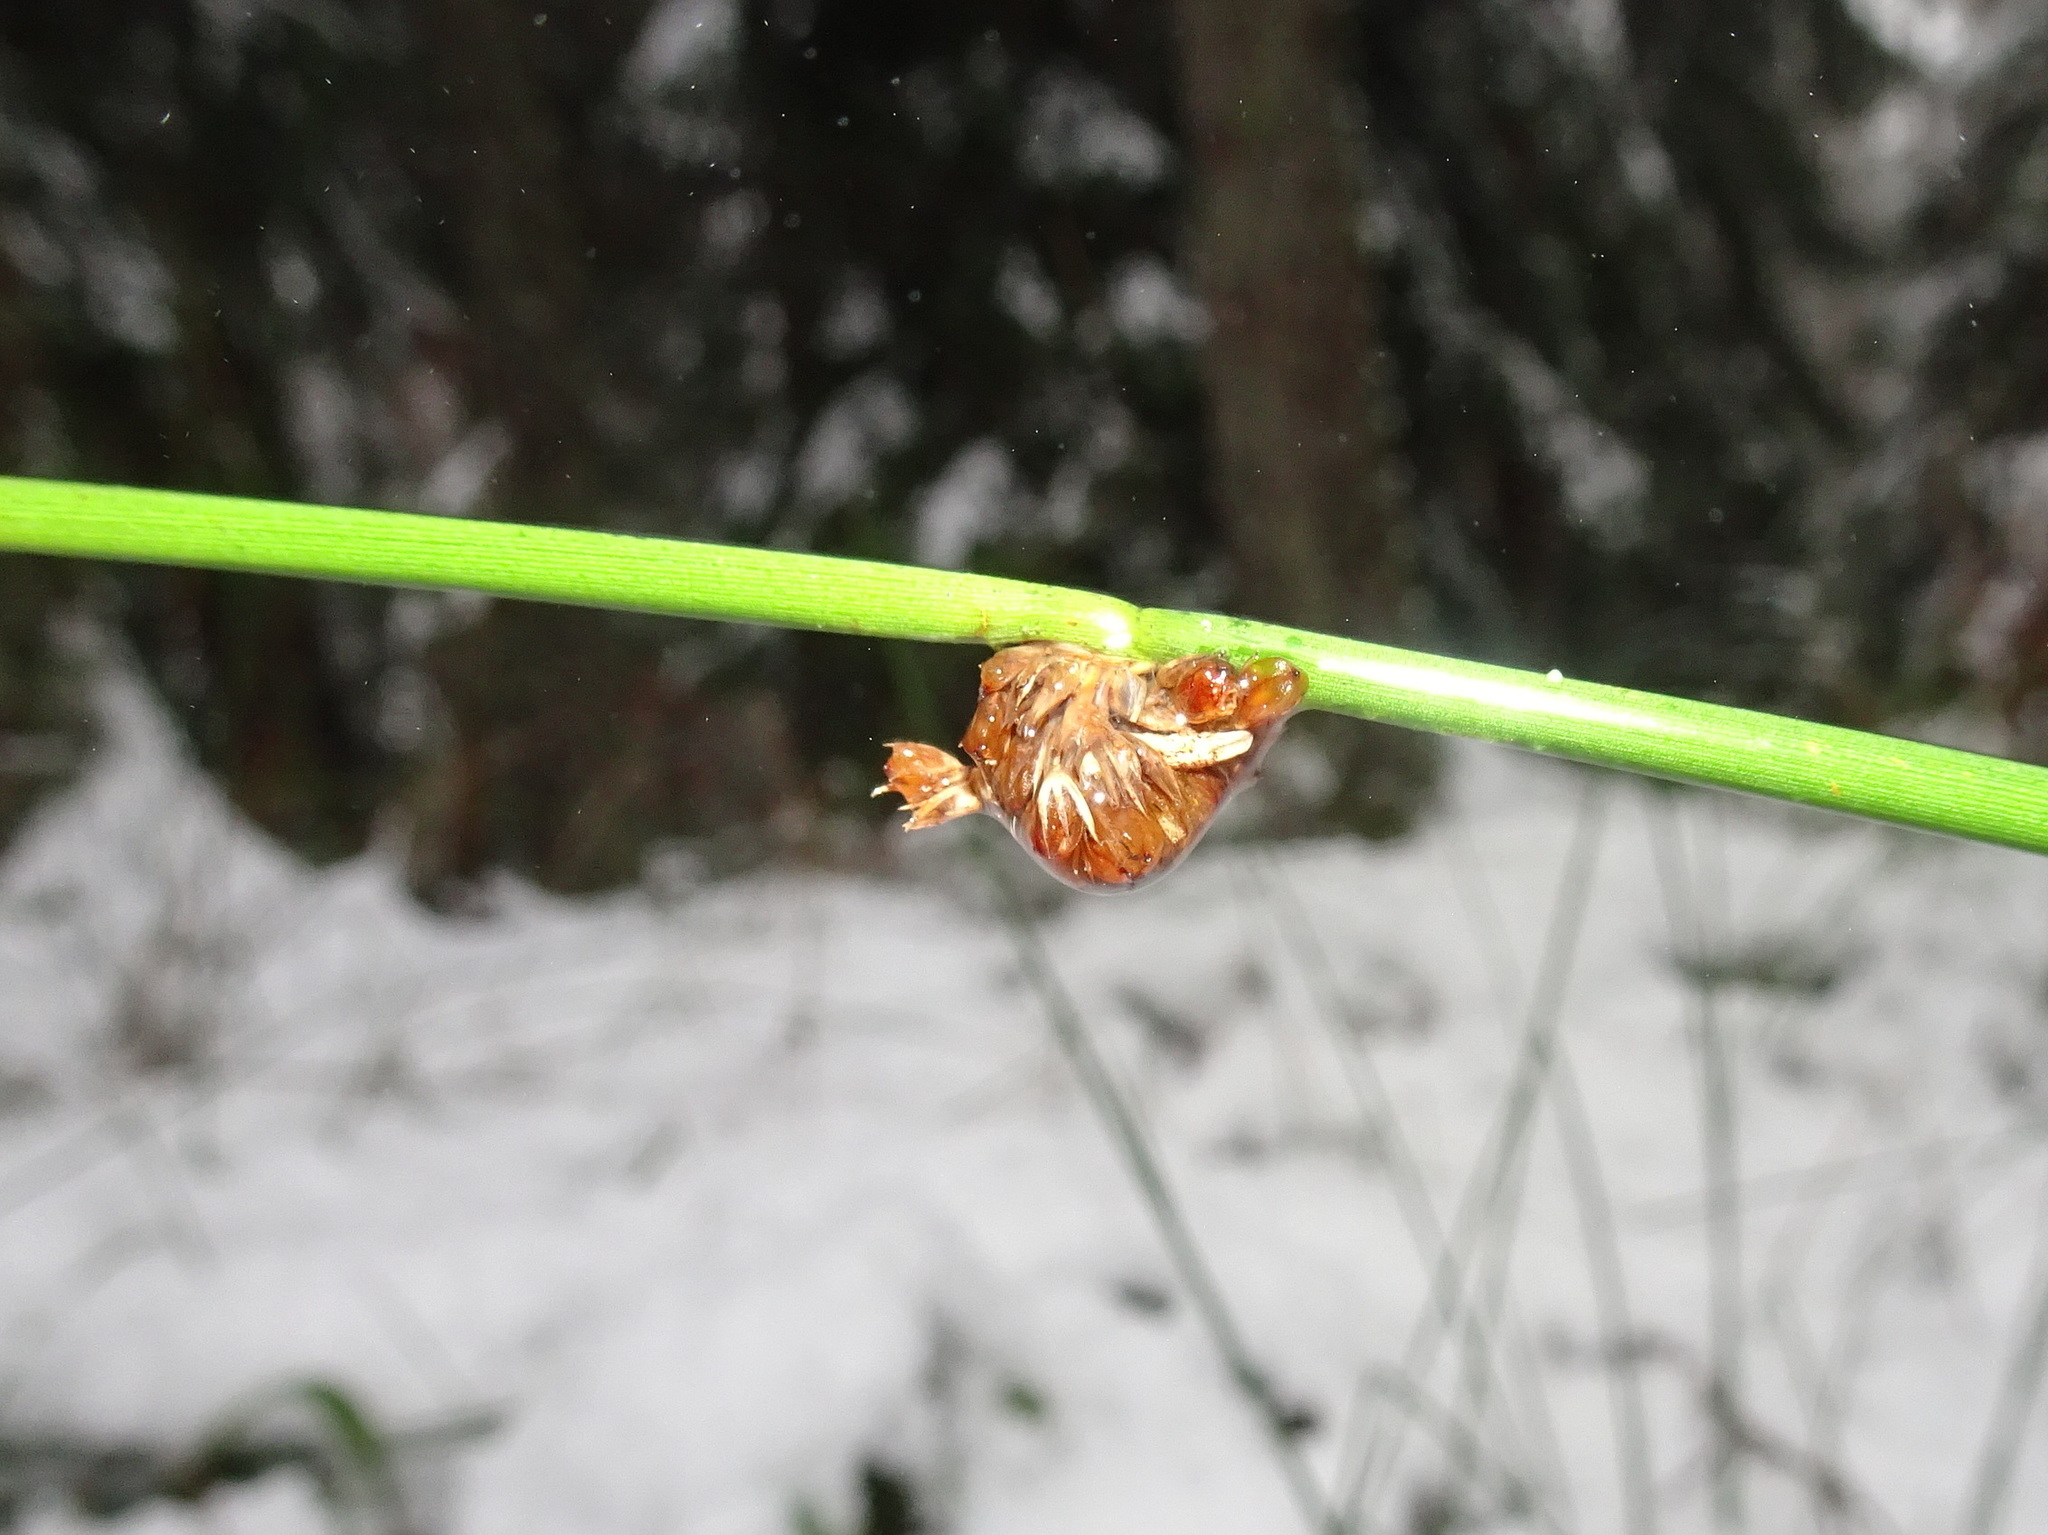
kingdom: Plantae
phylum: Tracheophyta
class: Liliopsida
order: Poales
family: Juncaceae
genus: Juncus
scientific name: Juncus effusus
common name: Soft rush
